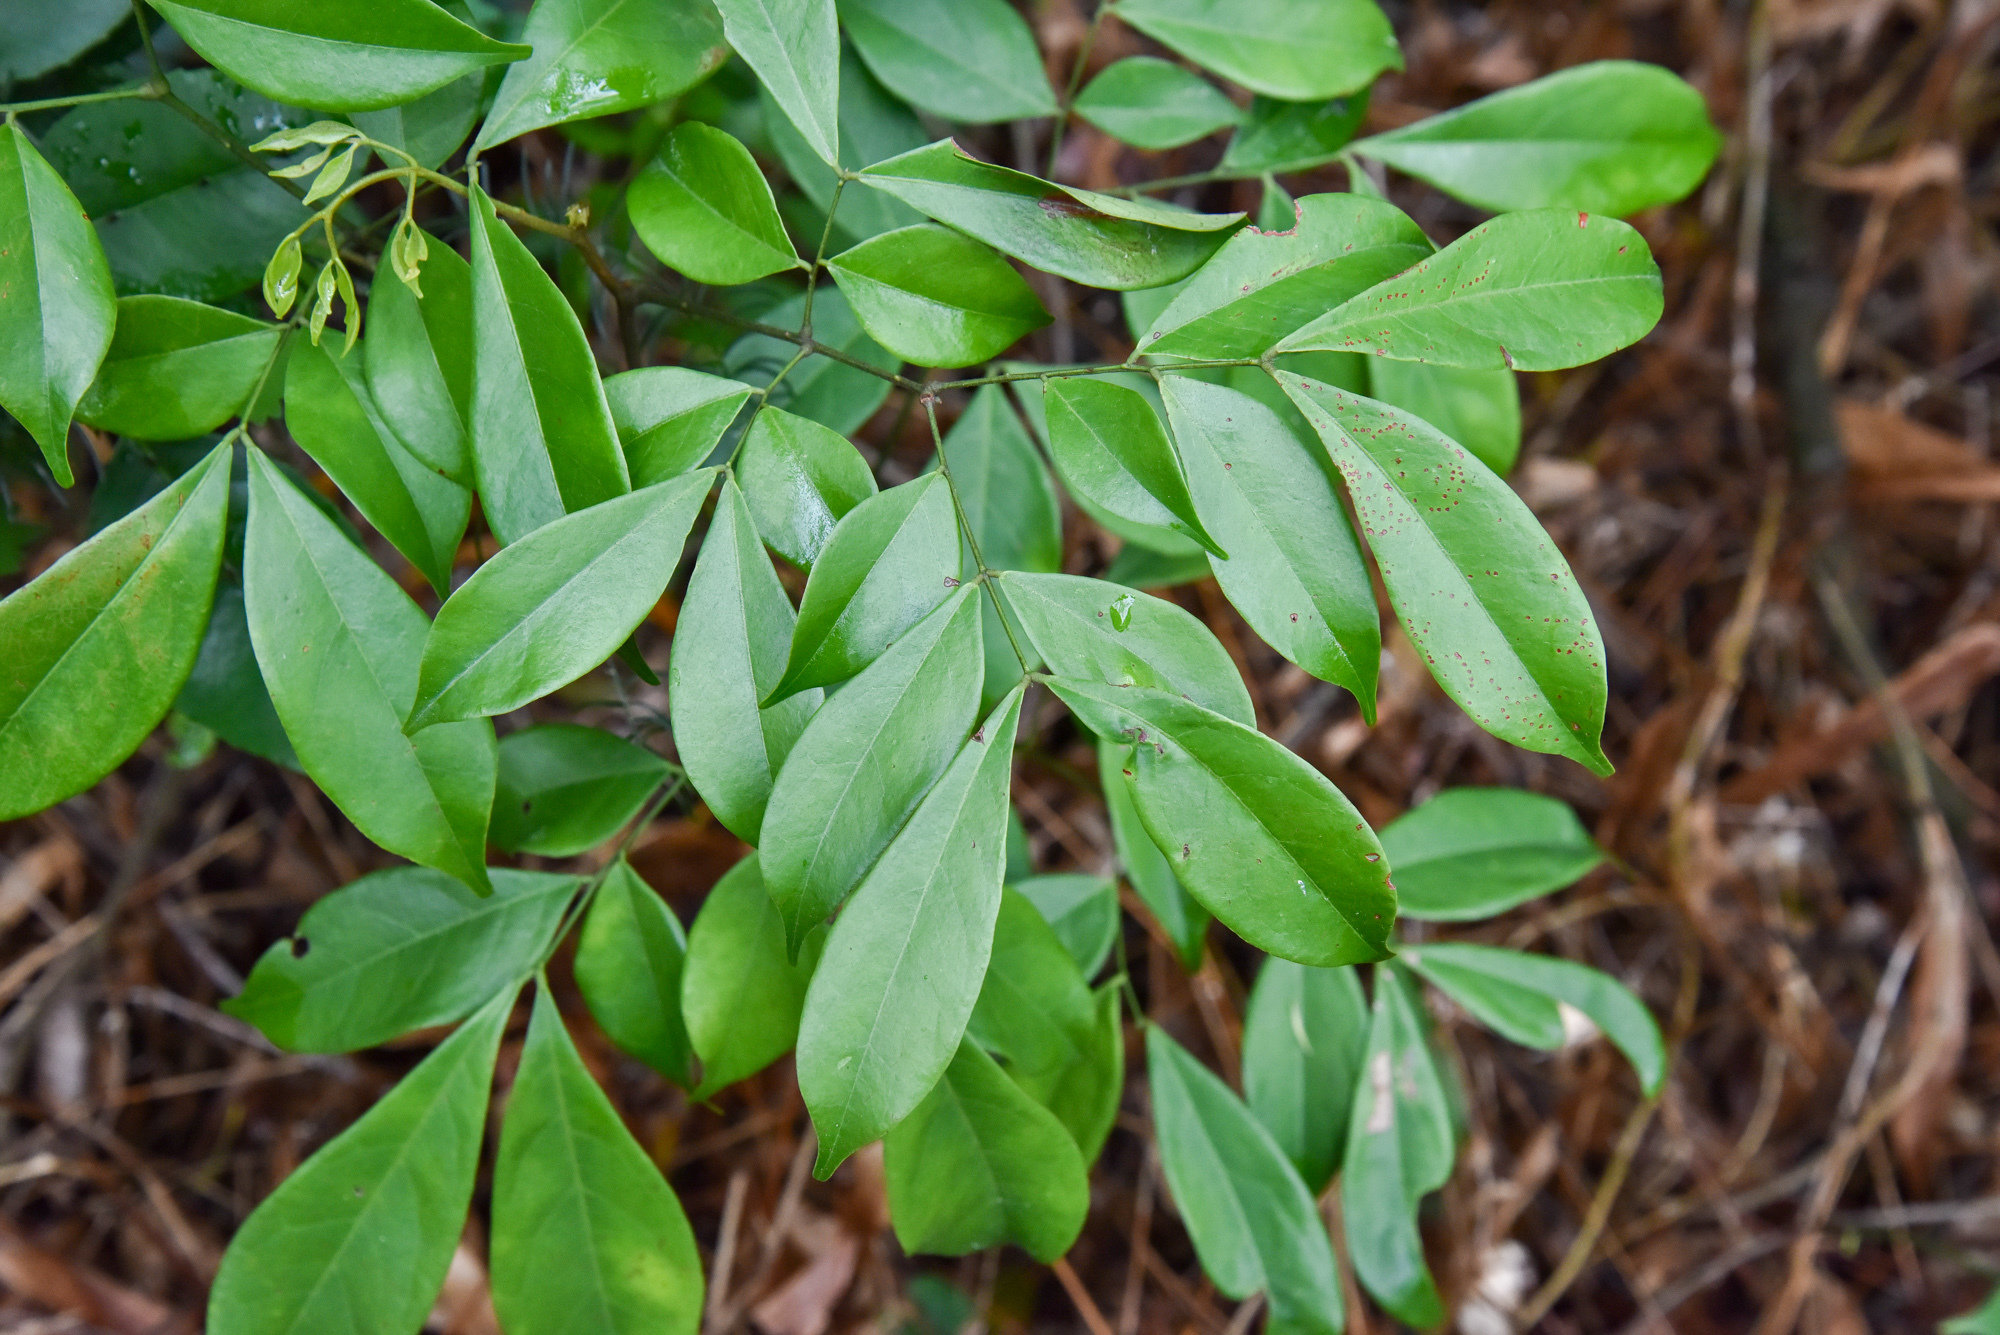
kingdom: Plantae
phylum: Tracheophyta
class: Magnoliopsida
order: Fabales
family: Fabaceae
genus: Archidendron
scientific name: Archidendron lucidum
